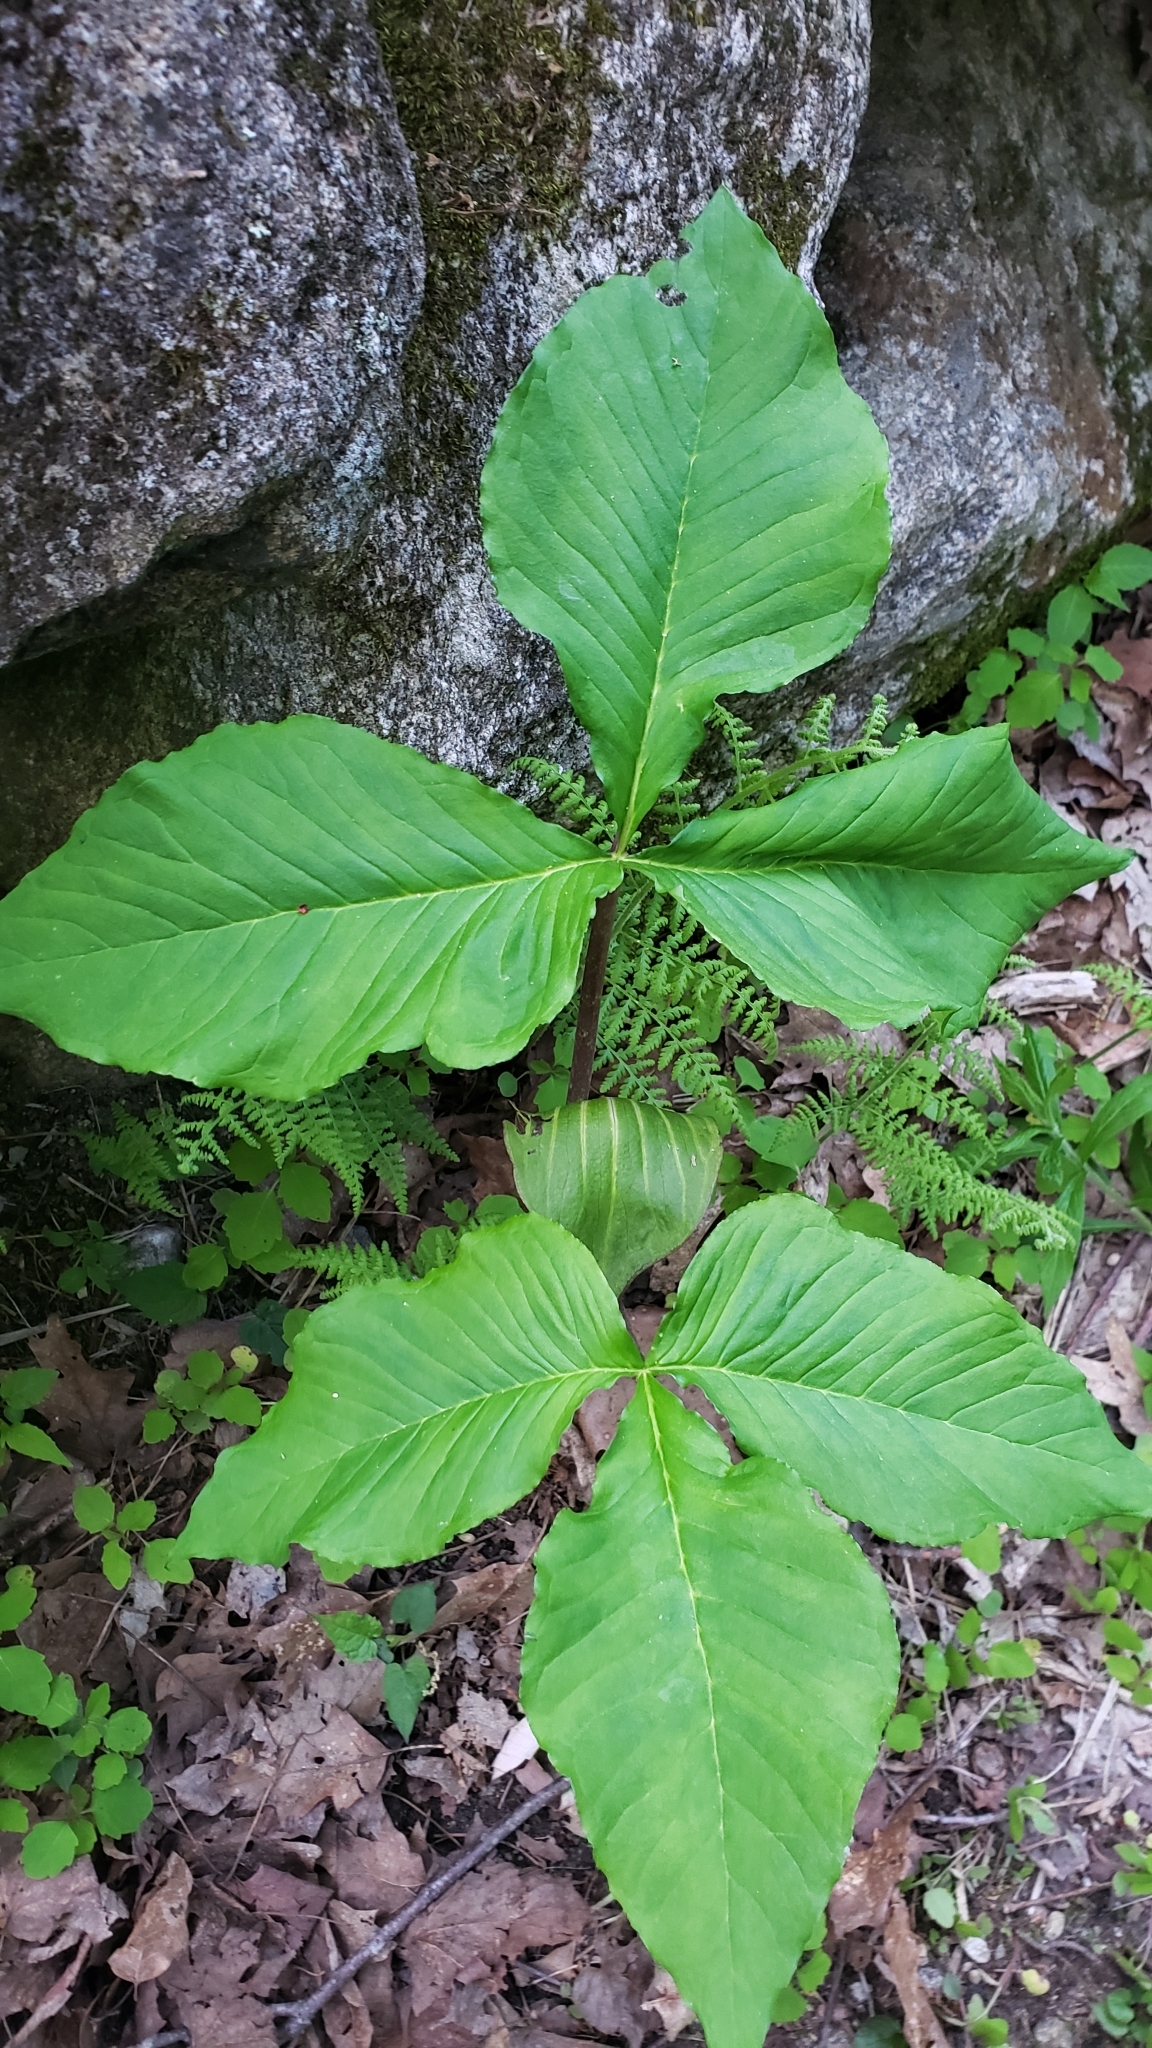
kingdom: Plantae
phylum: Tracheophyta
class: Liliopsida
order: Alismatales
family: Araceae
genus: Arisaema
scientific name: Arisaema triphyllum
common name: Jack-in-the-pulpit
